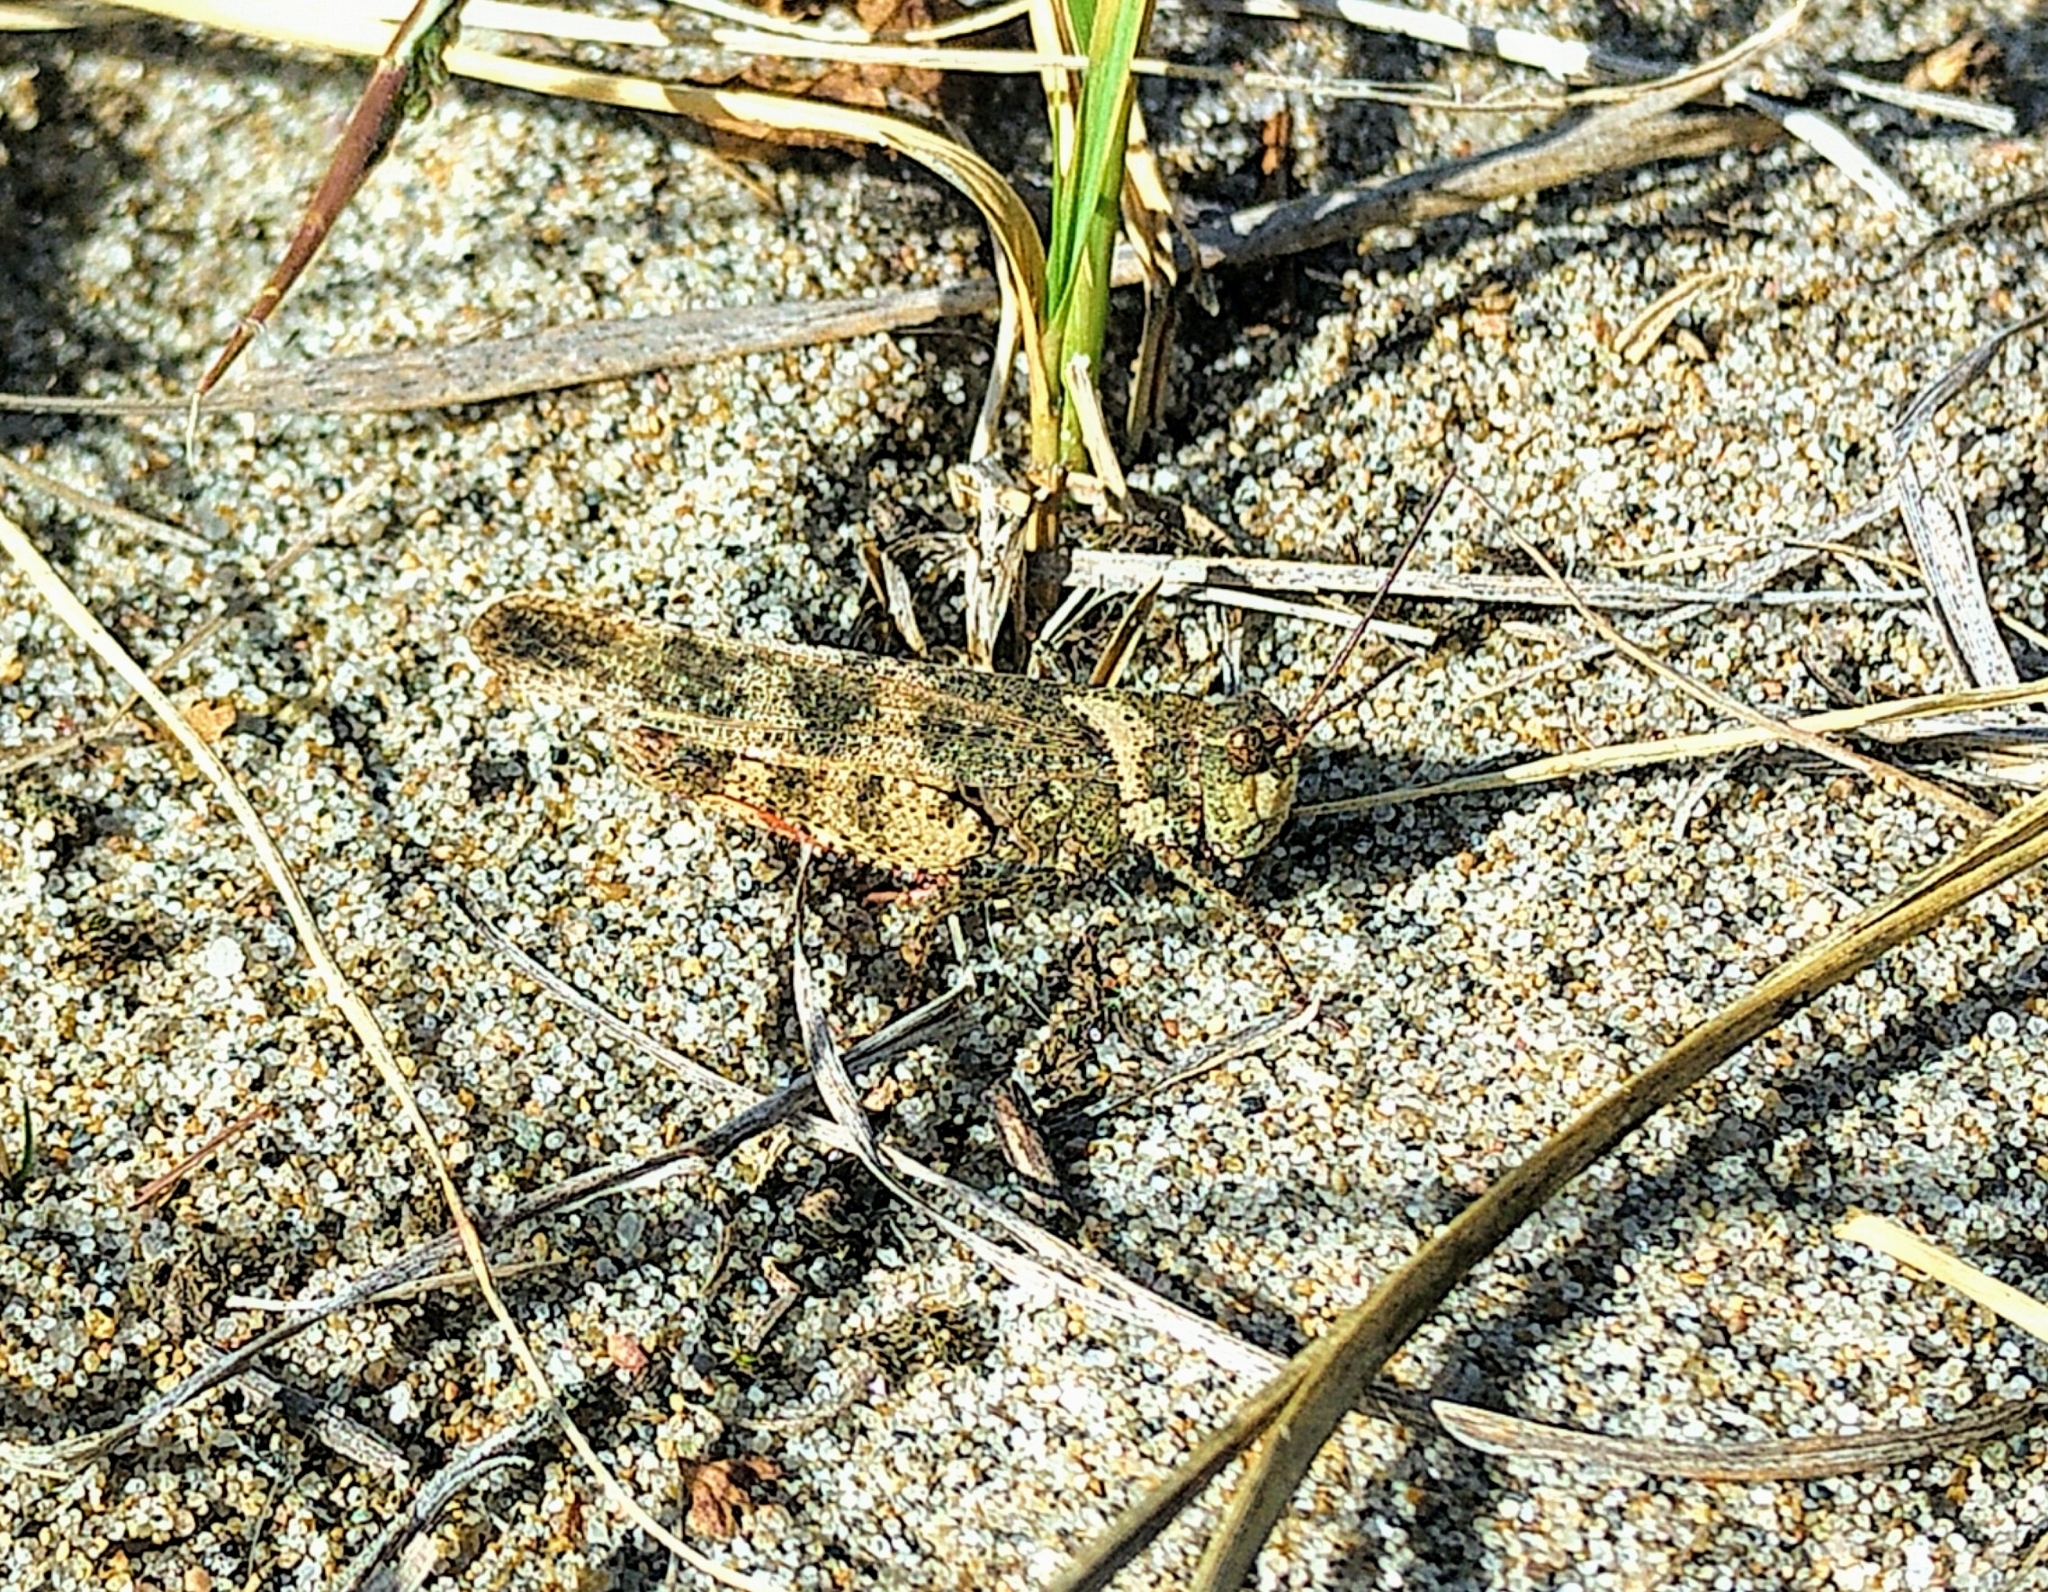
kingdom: Animalia
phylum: Arthropoda
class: Insecta
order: Orthoptera
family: Acrididae
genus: Spharagemon
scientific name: Spharagemon collare
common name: Mottled sand grasshopper
